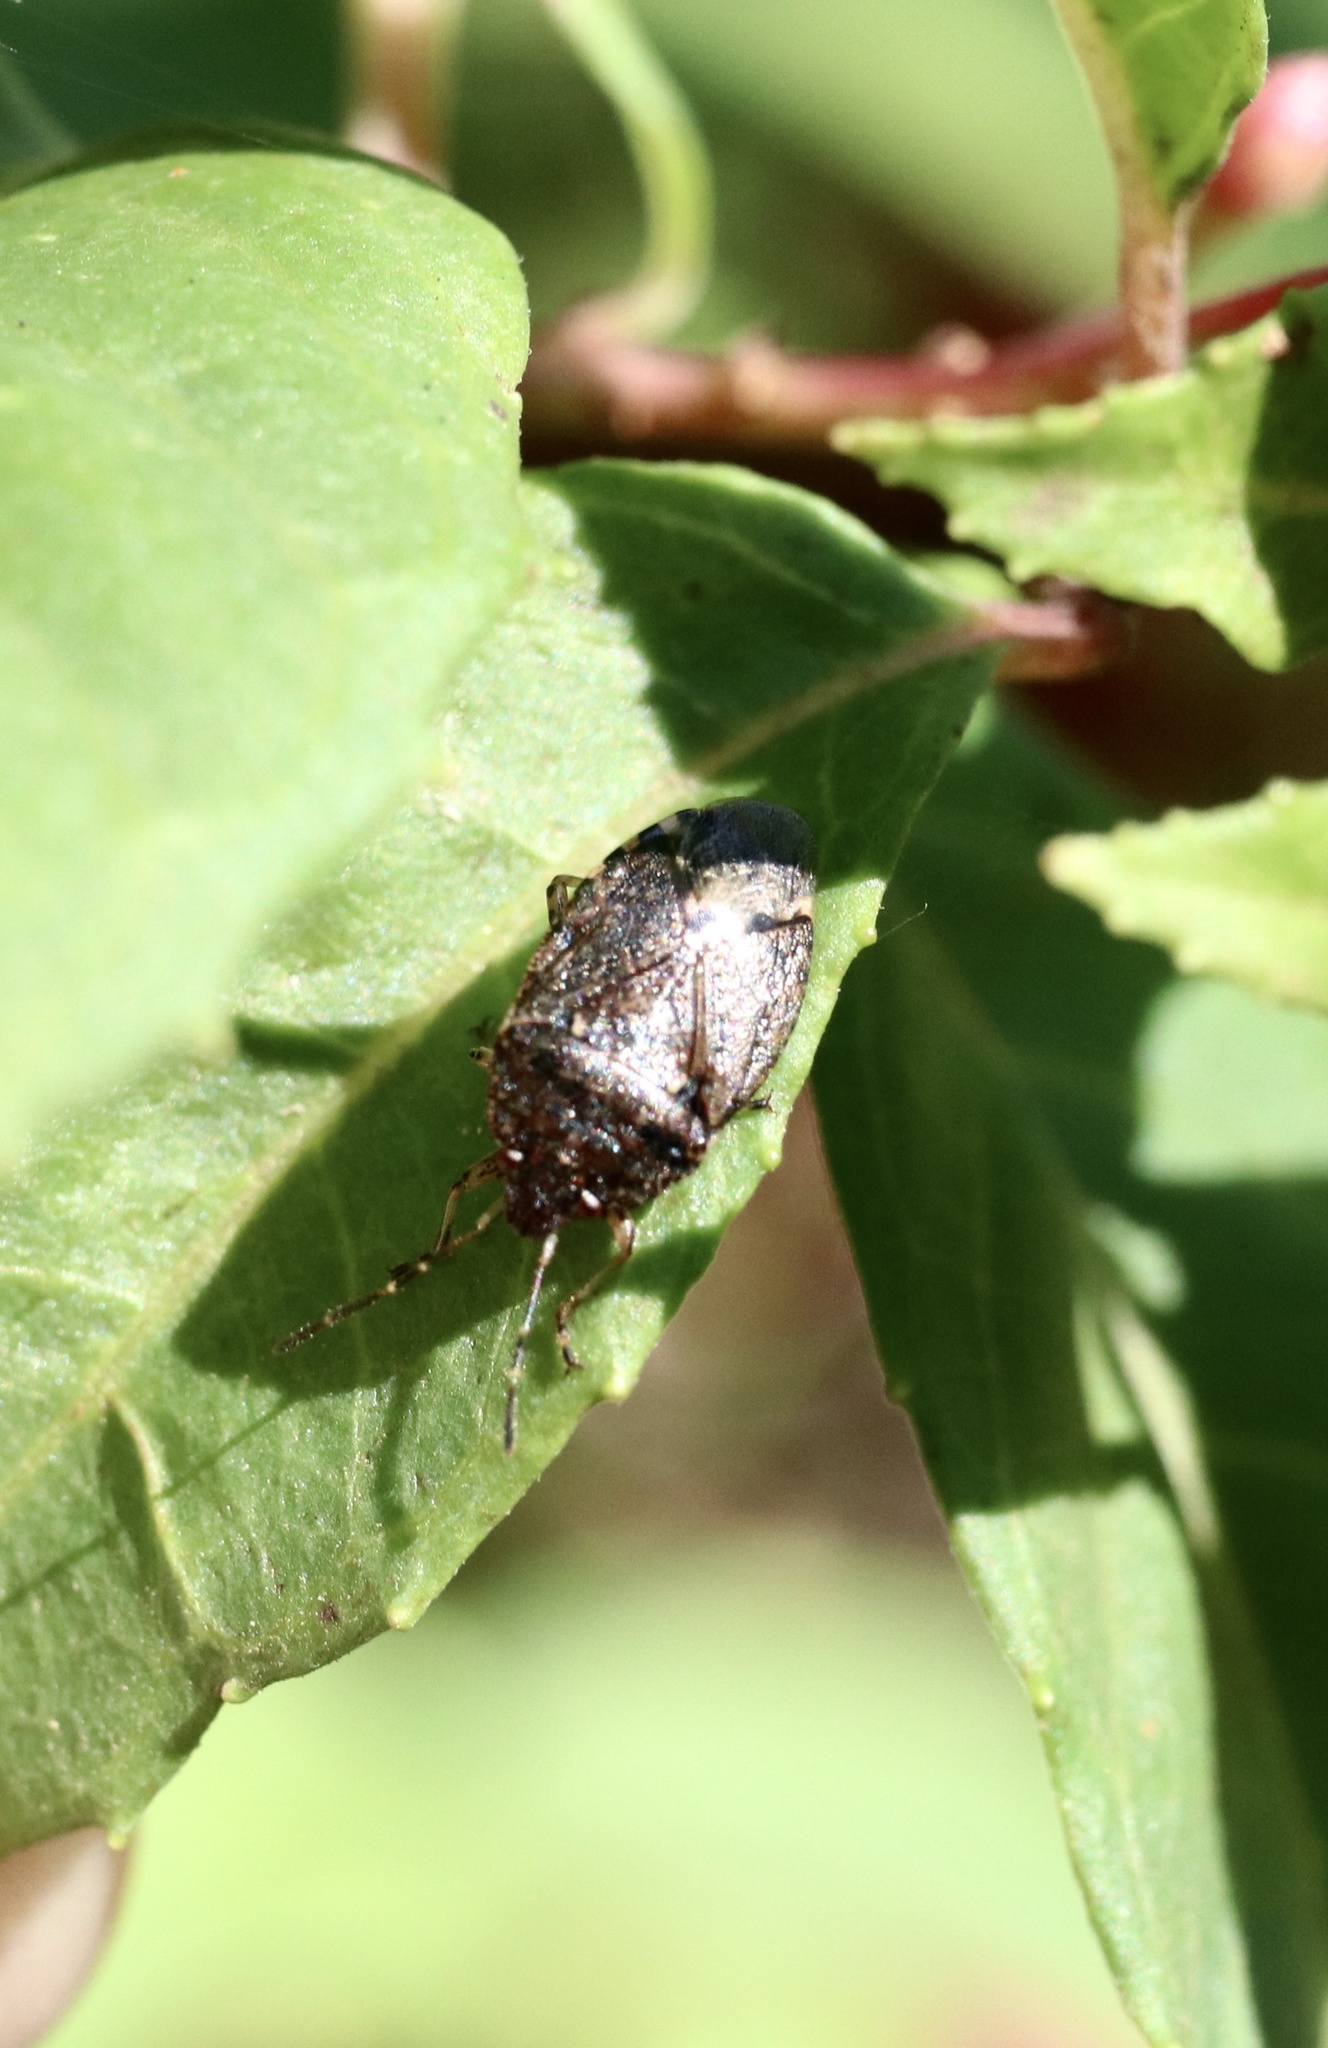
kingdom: Animalia
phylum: Arthropoda
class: Insecta
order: Hemiptera
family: Acanthosomatidae
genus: Acrophyma
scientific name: Acrophyma cumingii
